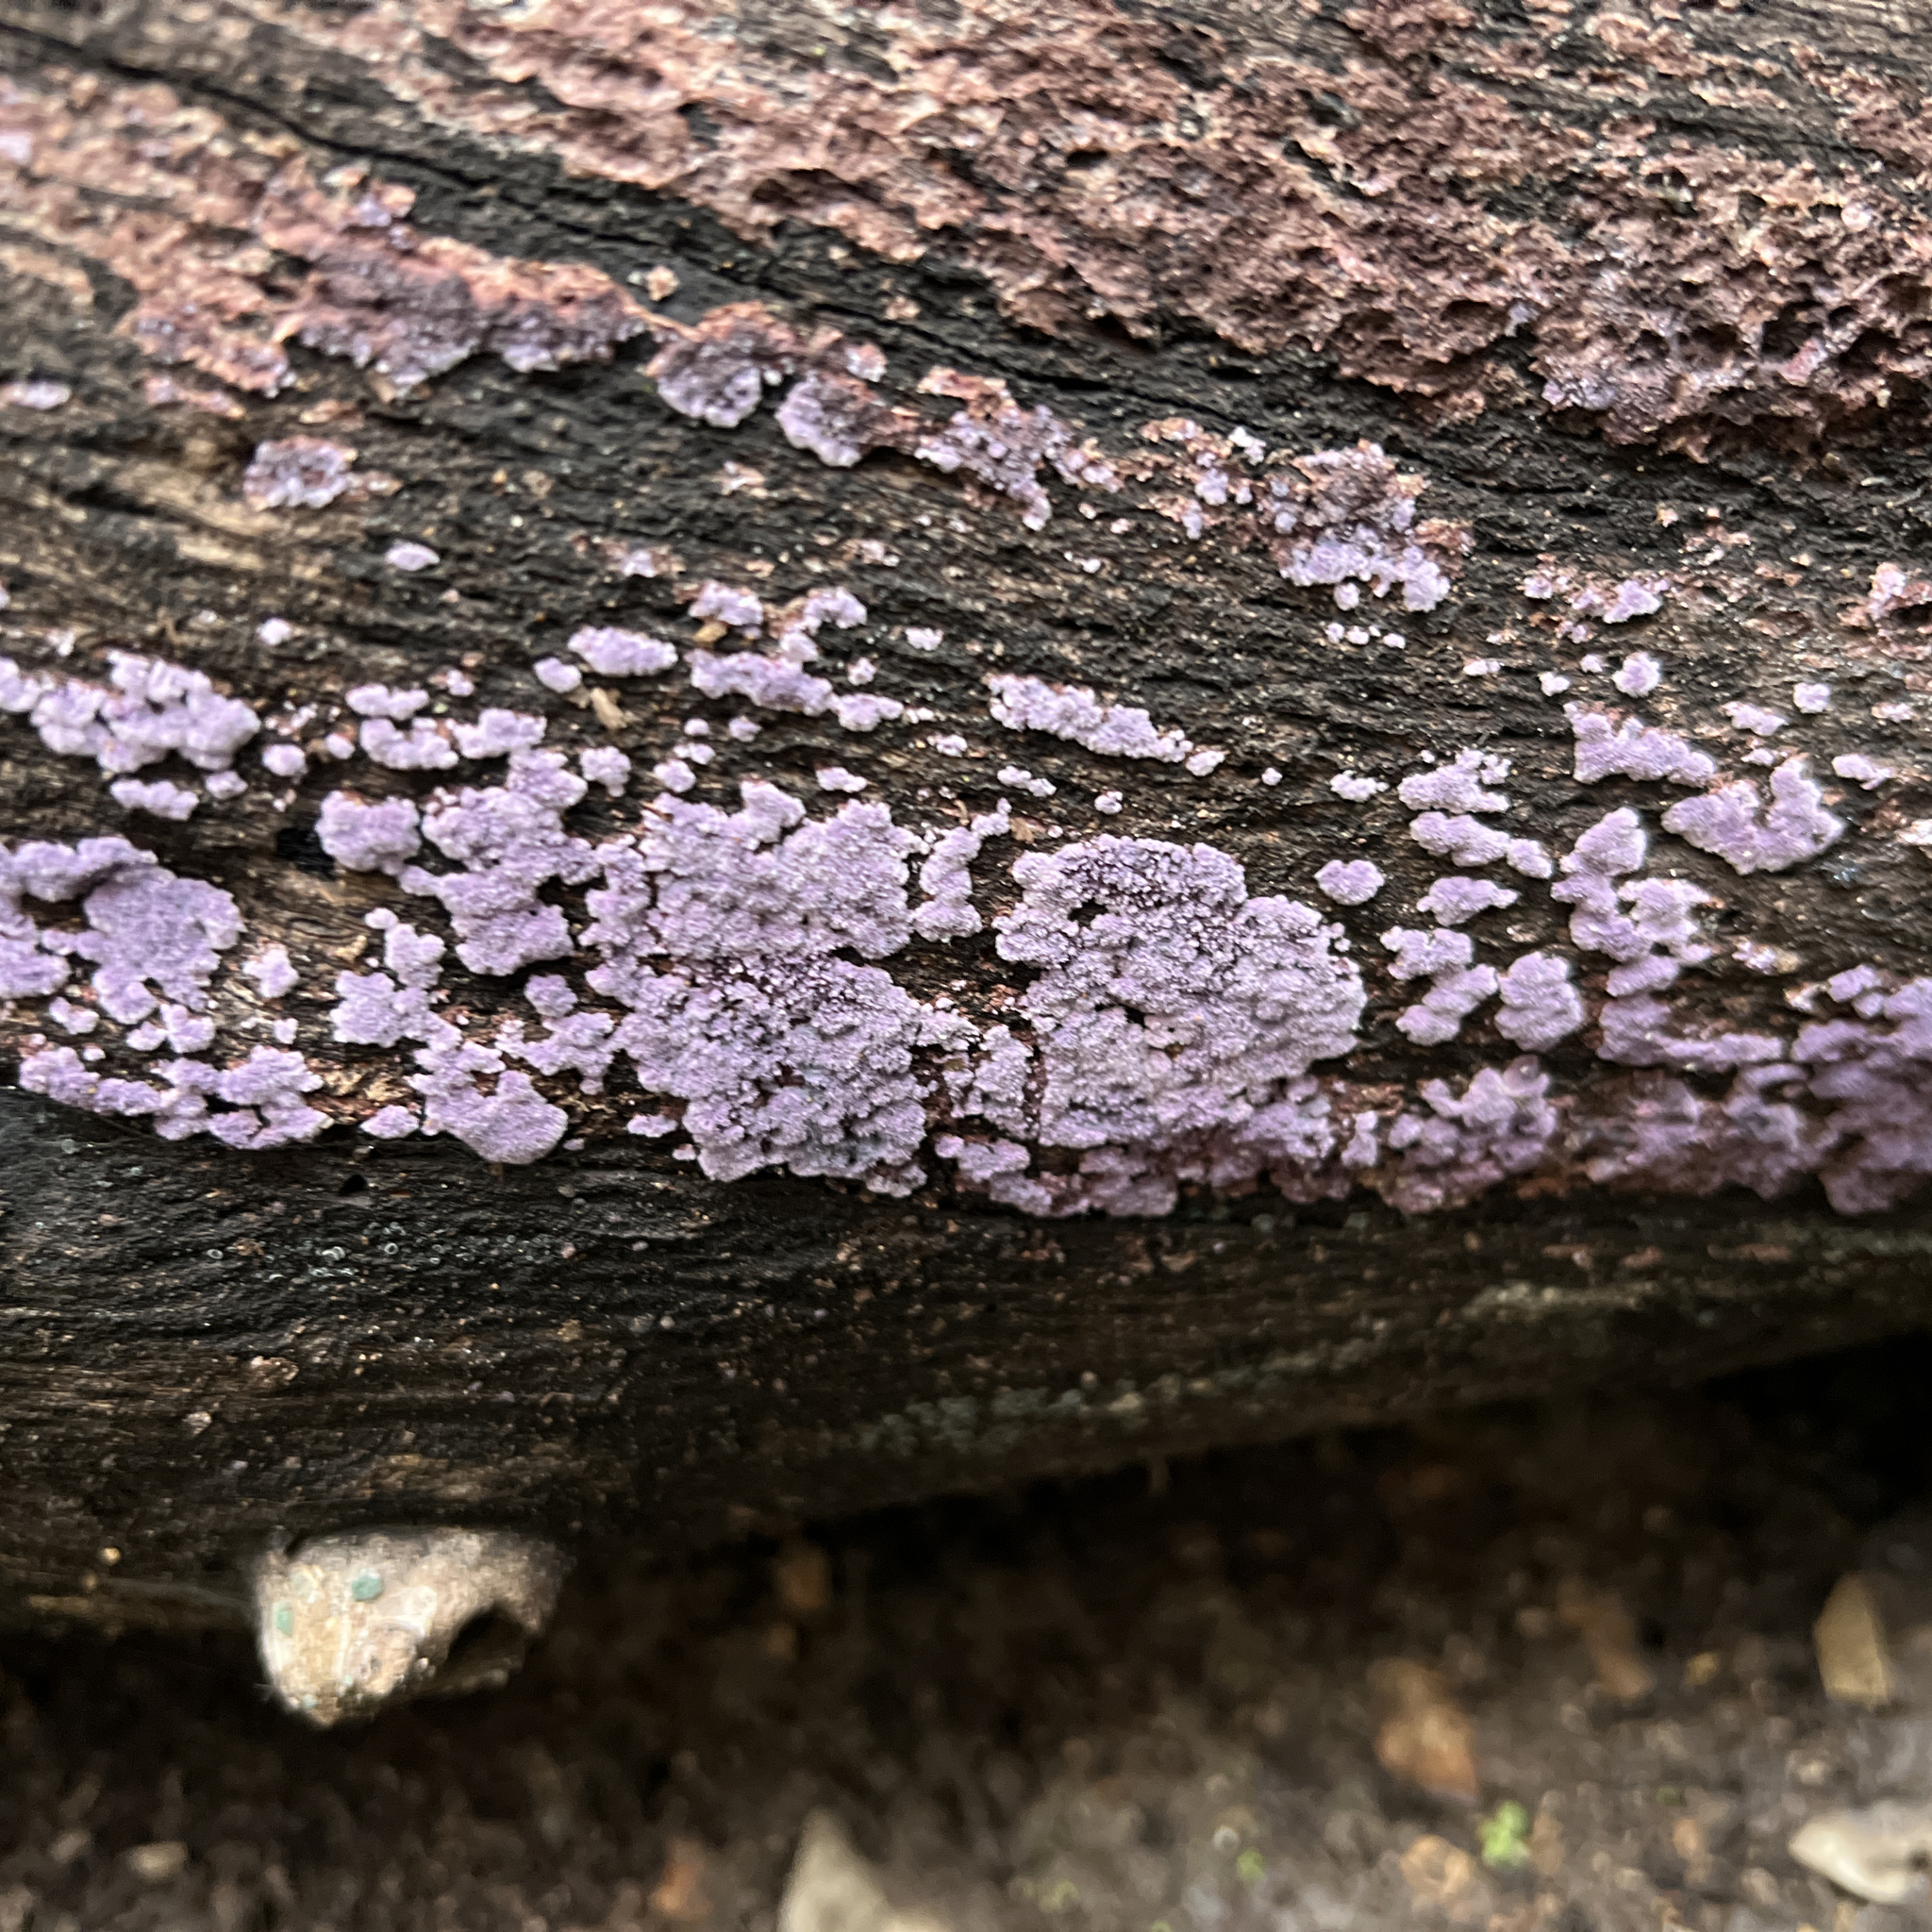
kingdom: Fungi
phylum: Basidiomycota
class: Agaricomycetes
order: Corticiales
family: Punctulariaceae
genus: Punctularia
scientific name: Punctularia atropurpurascens
